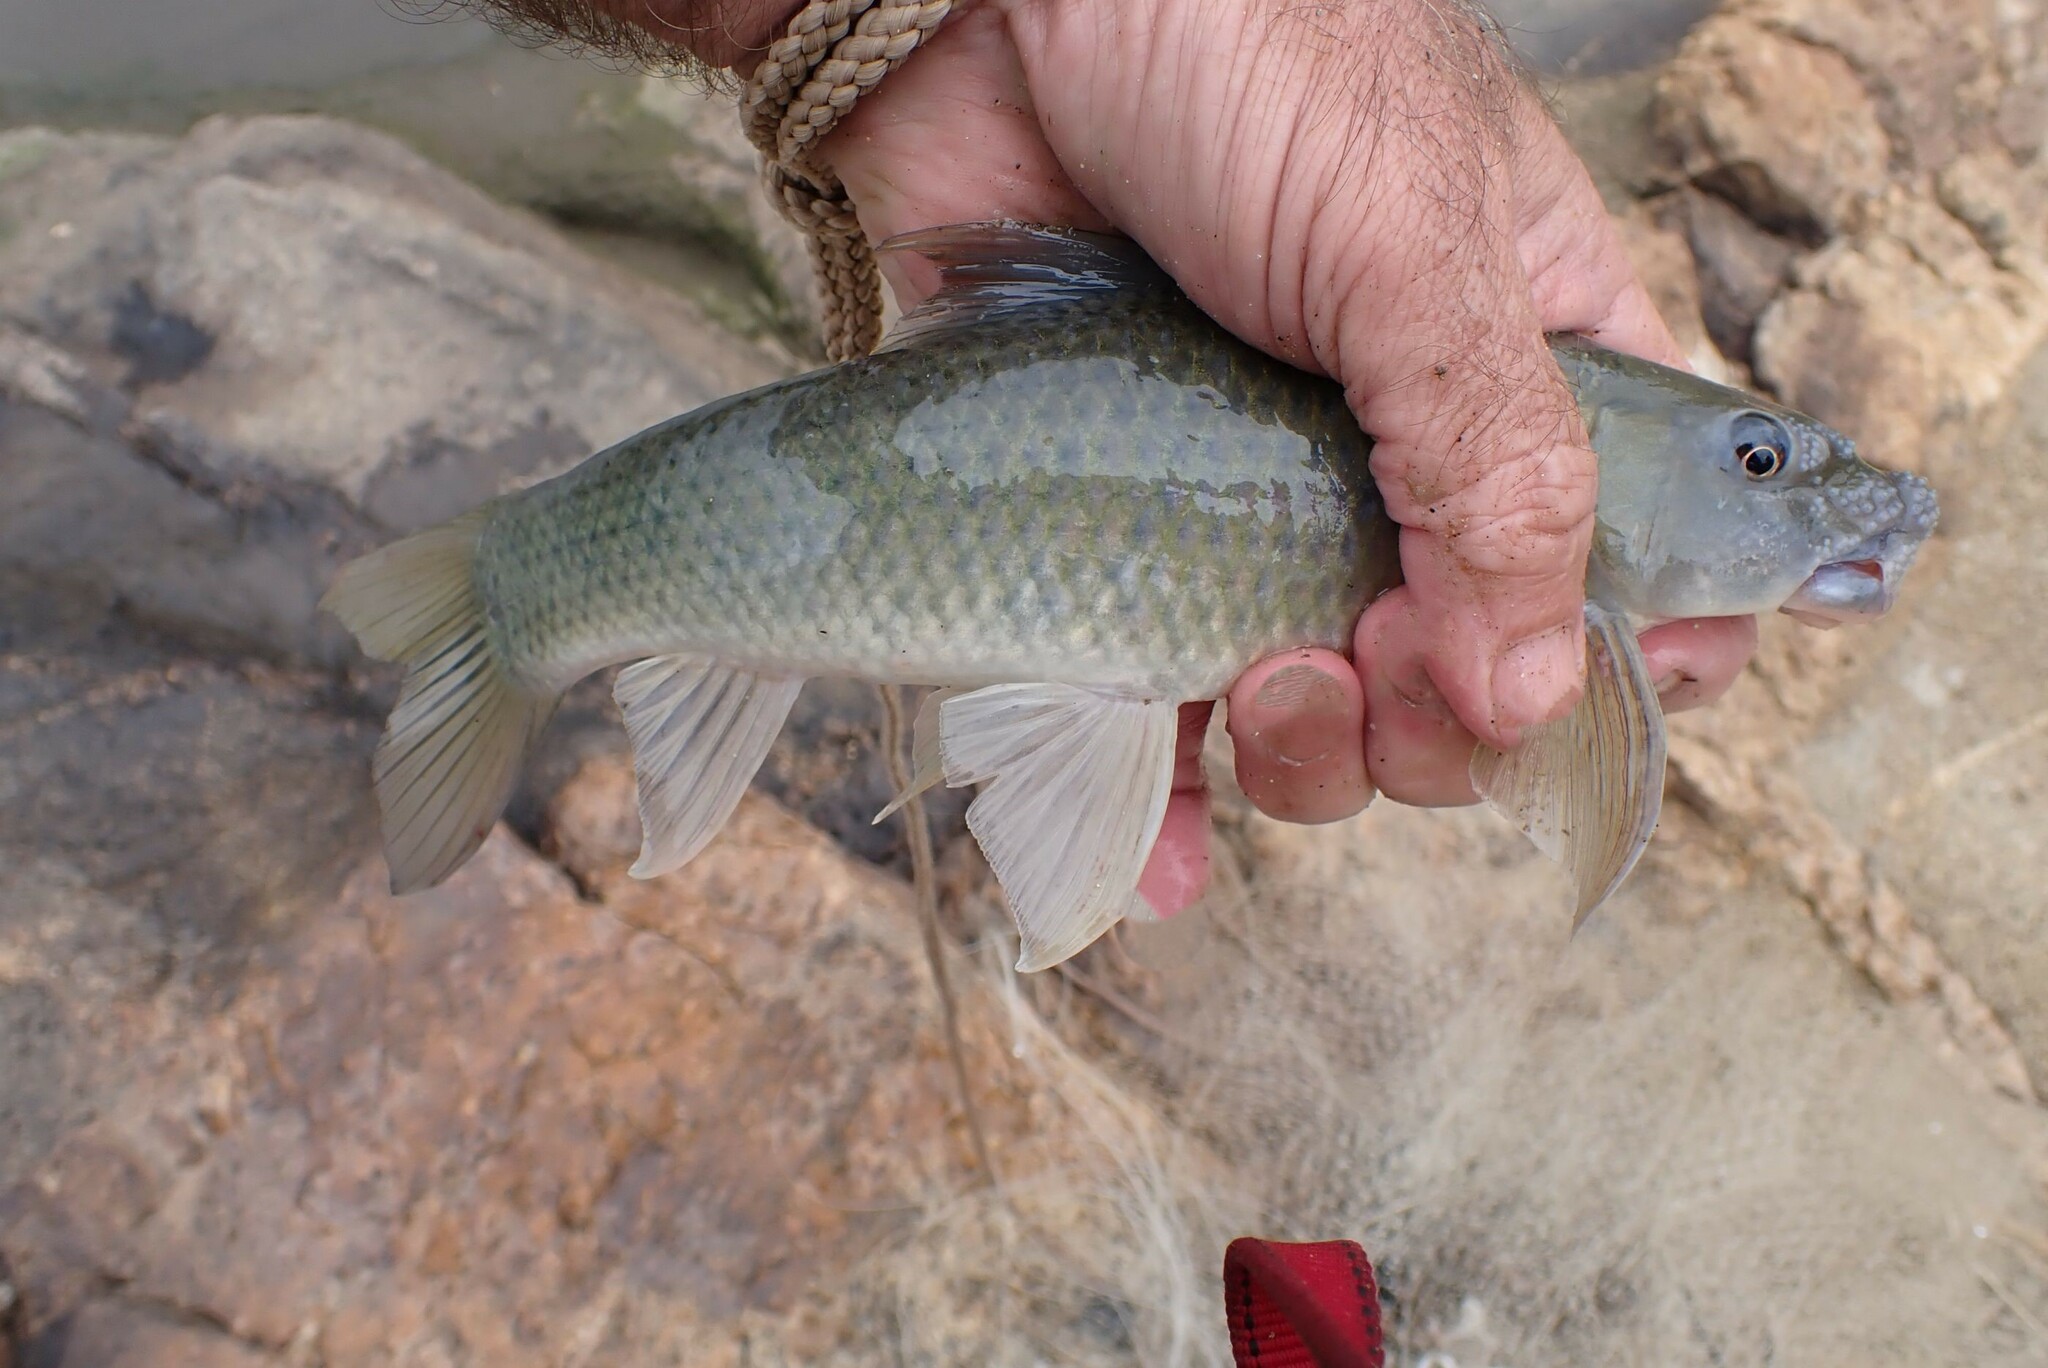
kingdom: Animalia
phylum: Chordata
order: Cypriniformes
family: Cyprinidae
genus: Labeo
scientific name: Labeo molybdinus
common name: Leaden labeo
